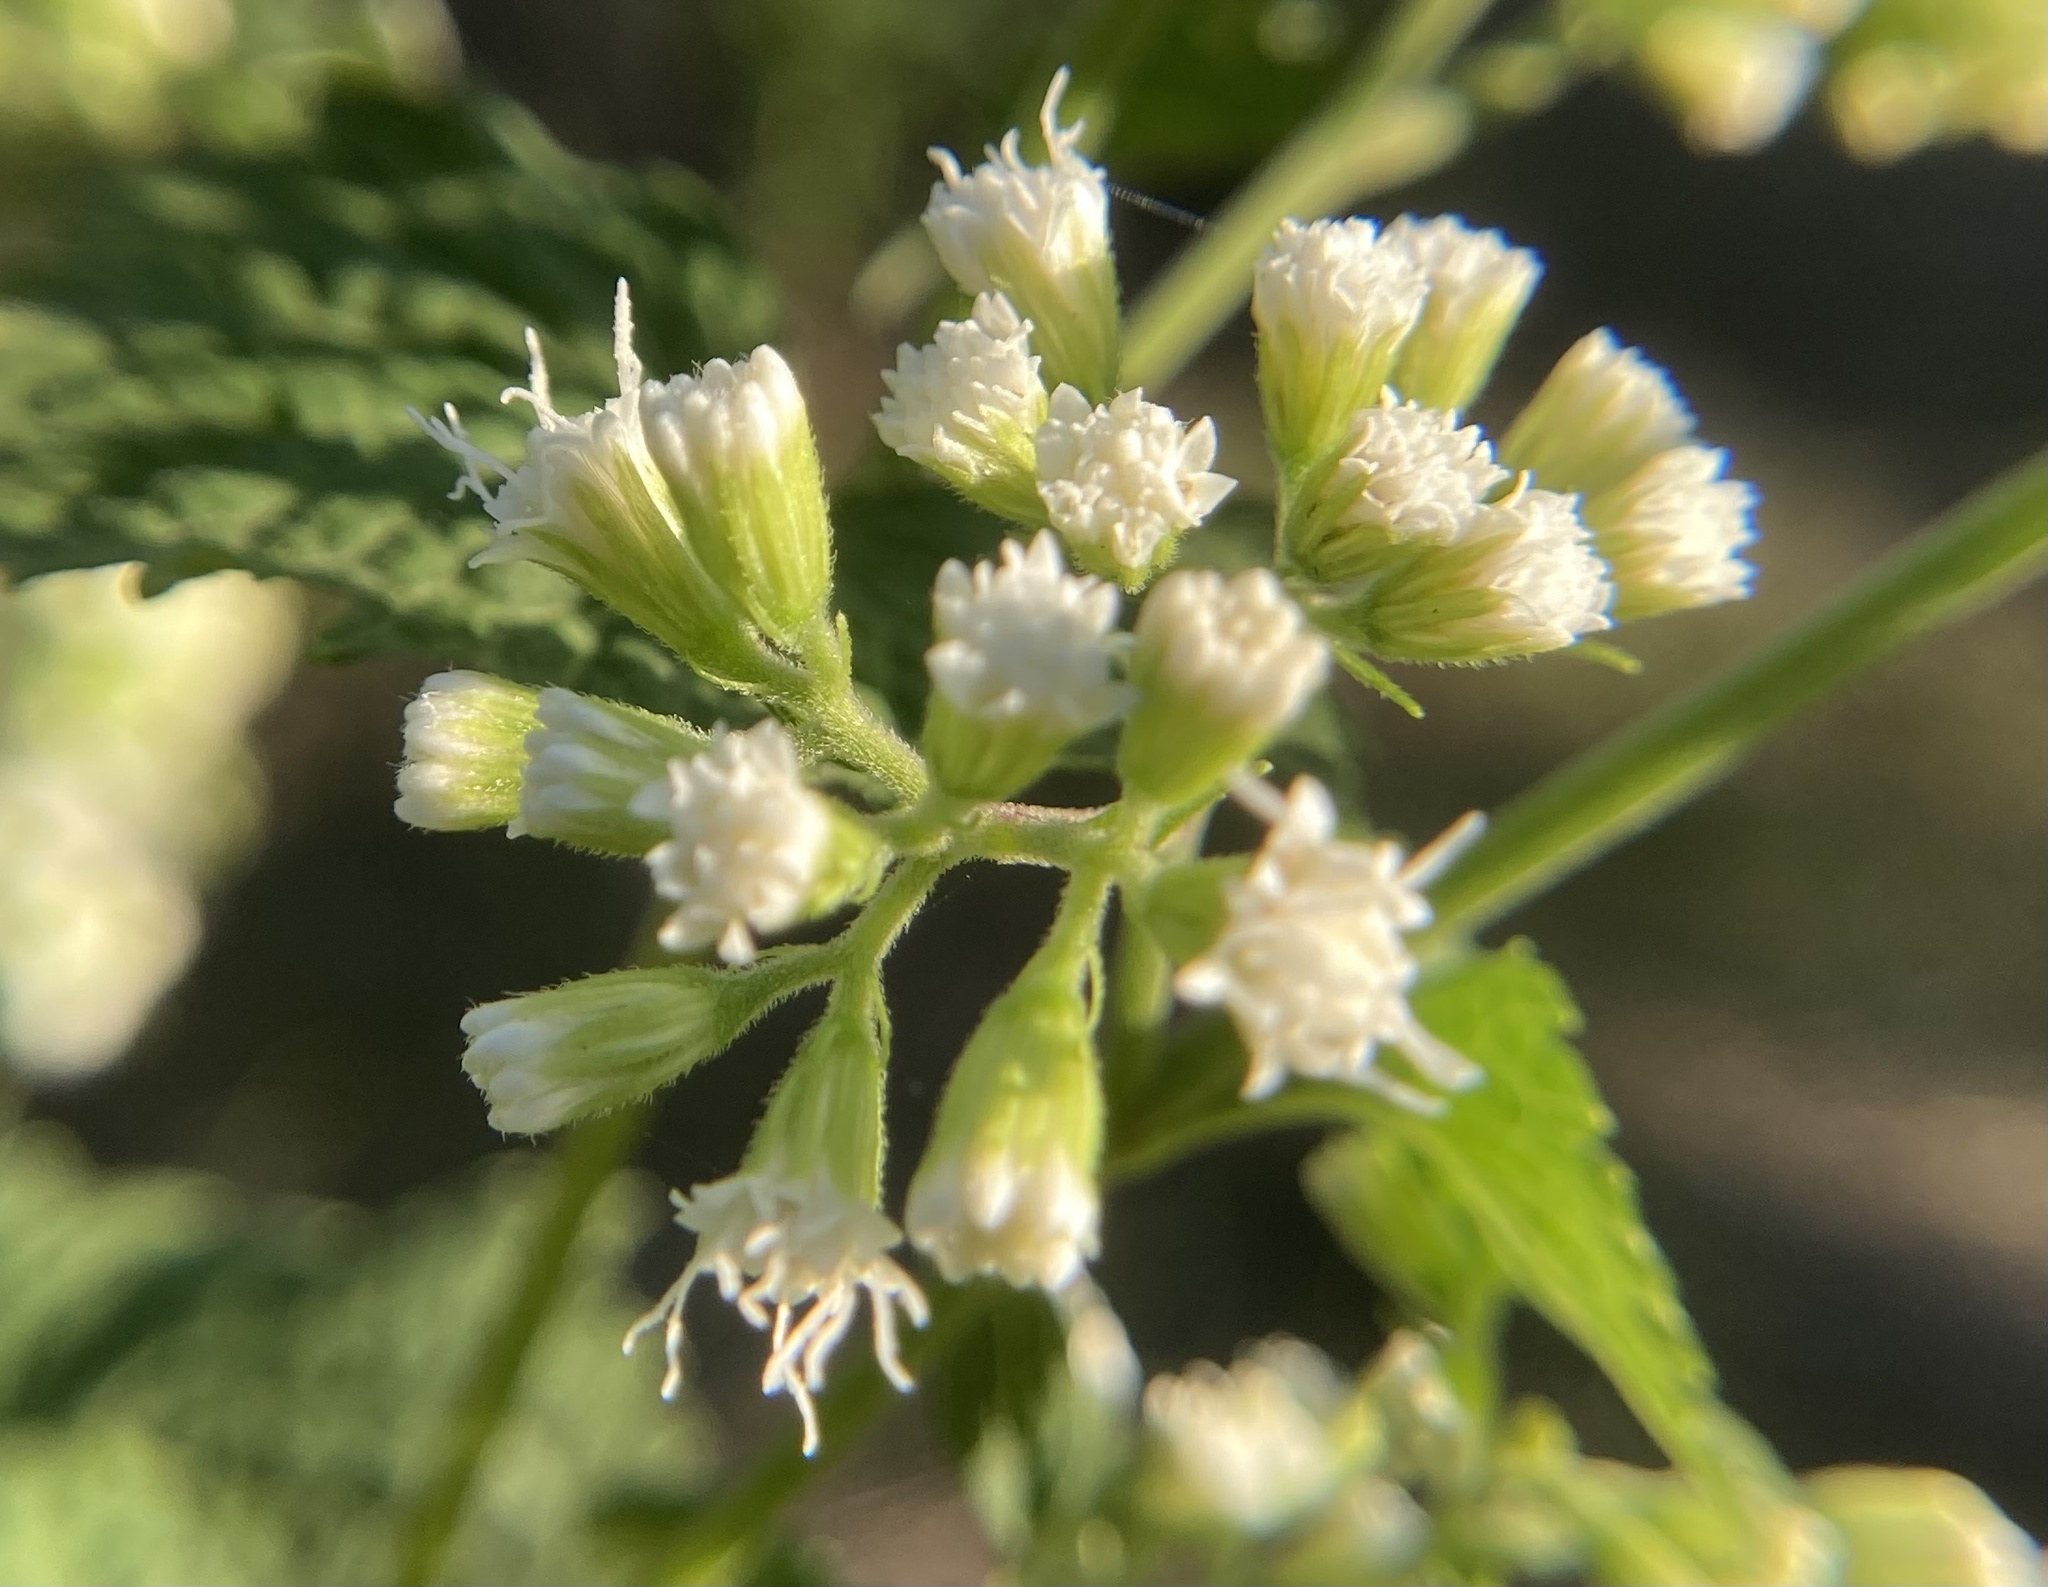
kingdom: Plantae
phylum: Tracheophyta
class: Magnoliopsida
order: Asterales
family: Asteraceae
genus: Ageratina
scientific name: Ageratina altissima
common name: White snakeroot
